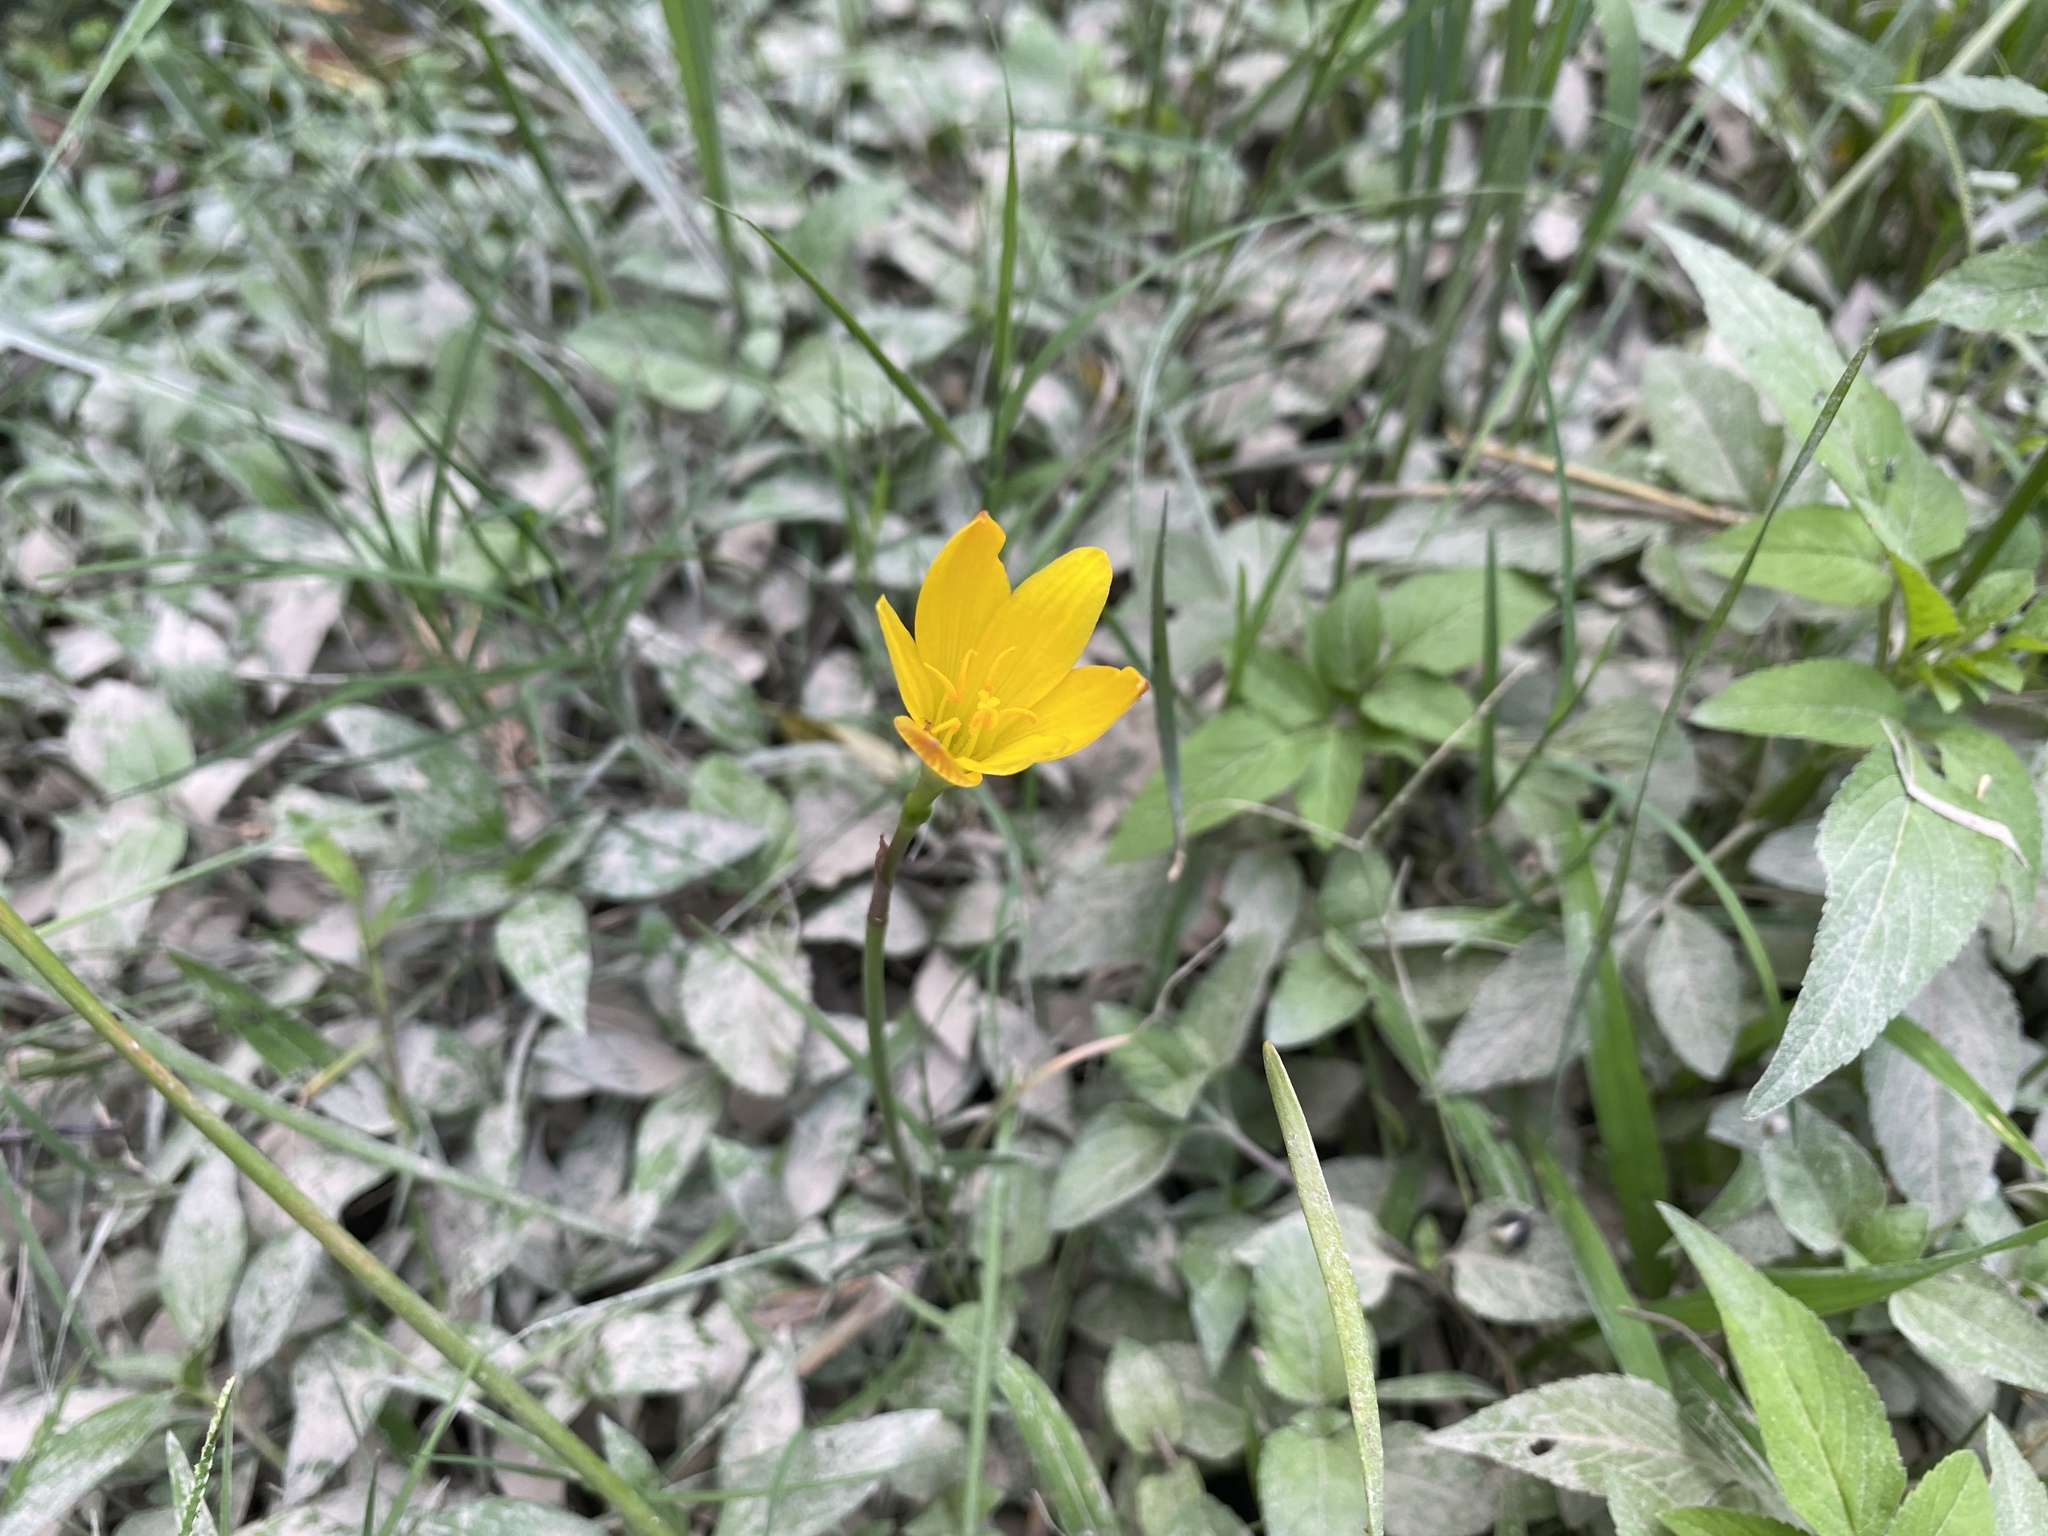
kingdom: Plantae
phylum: Tracheophyta
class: Liliopsida
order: Asparagales
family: Amaryllidaceae
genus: Zephyranthes
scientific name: Zephyranthes pulchella
